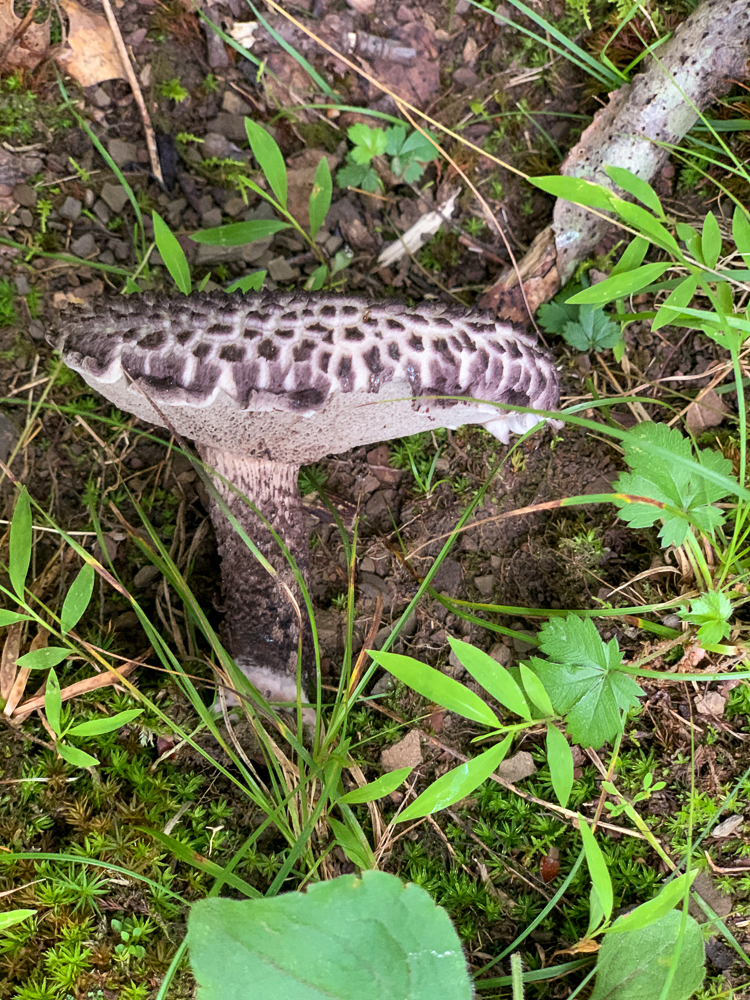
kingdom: Fungi
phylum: Basidiomycota
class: Agaricomycetes
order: Boletales
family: Boletaceae
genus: Strobilomyces
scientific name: Strobilomyces strobilaceus
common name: Old man of the woods
